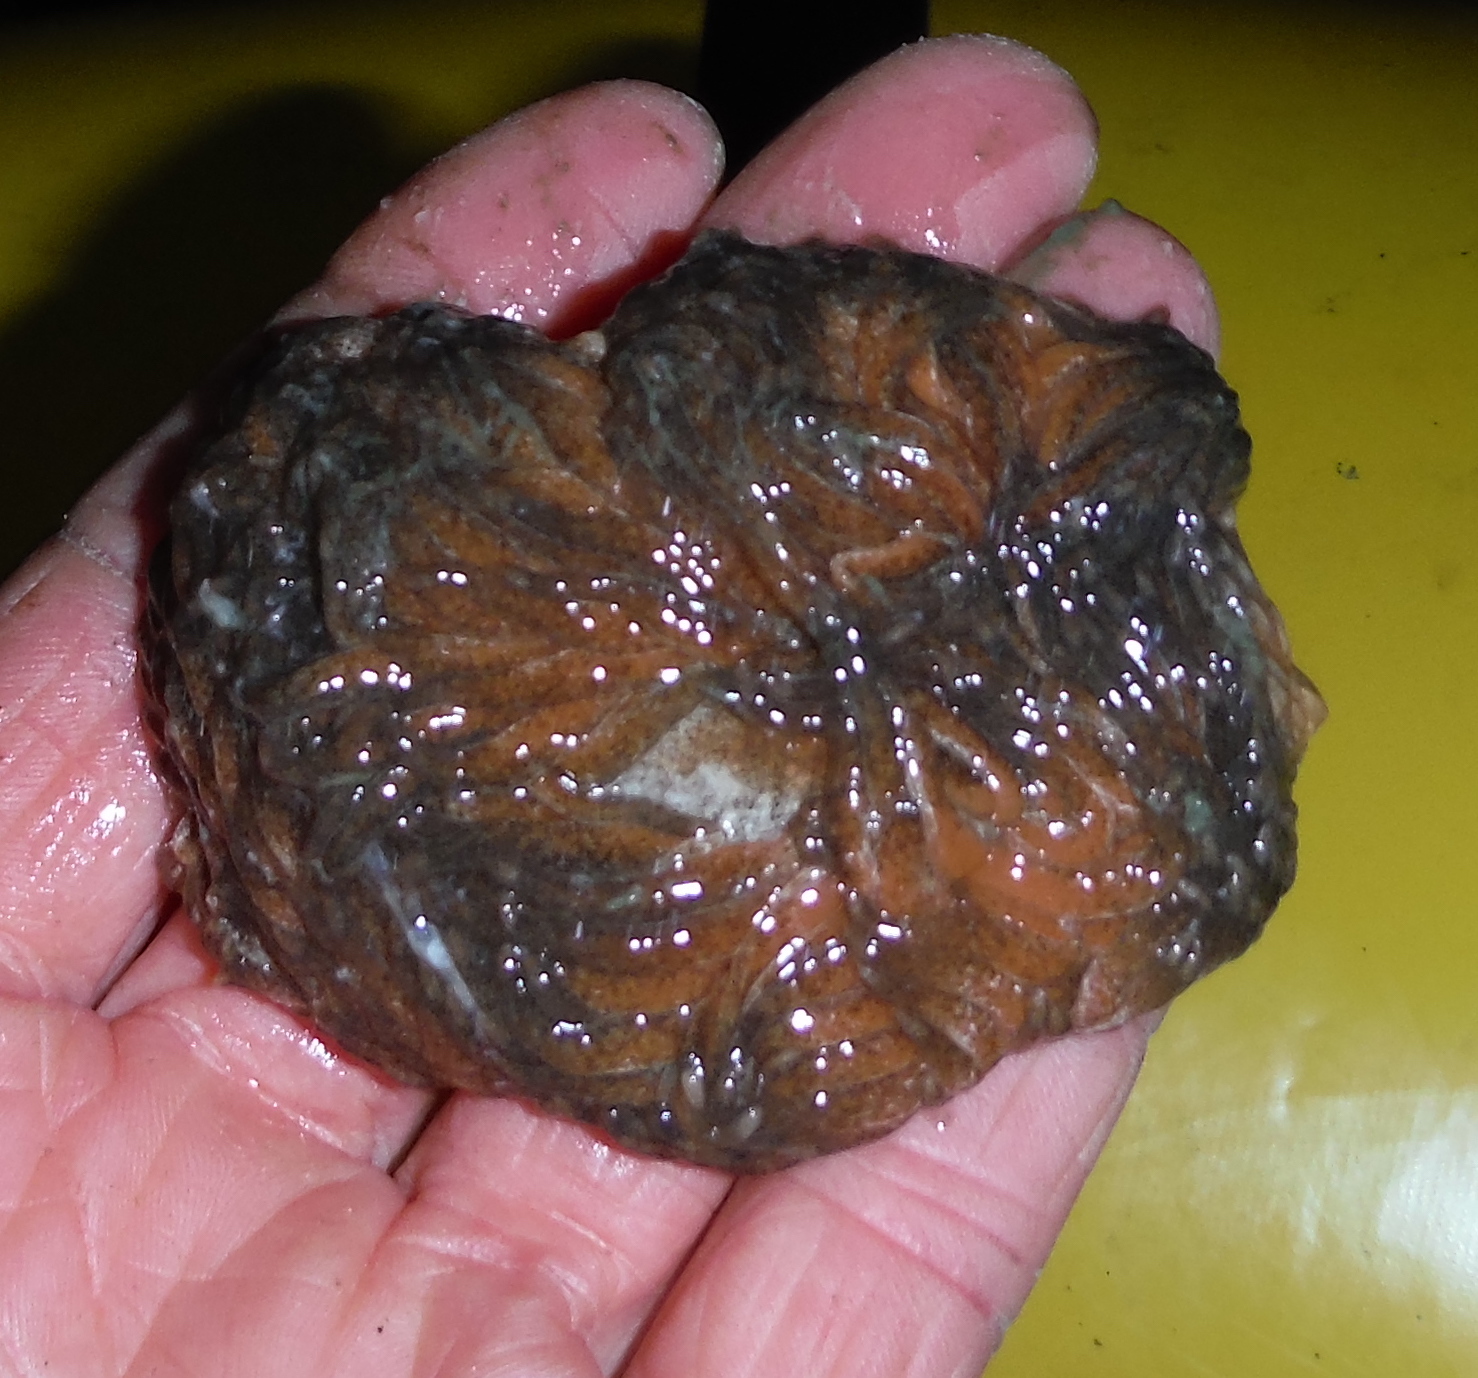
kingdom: Animalia
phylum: Mollusca
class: Gastropoda
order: Nudibranchia
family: Aeolidiidae
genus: Aeolidia
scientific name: Aeolidia papillosa
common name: Common grey sea slug
